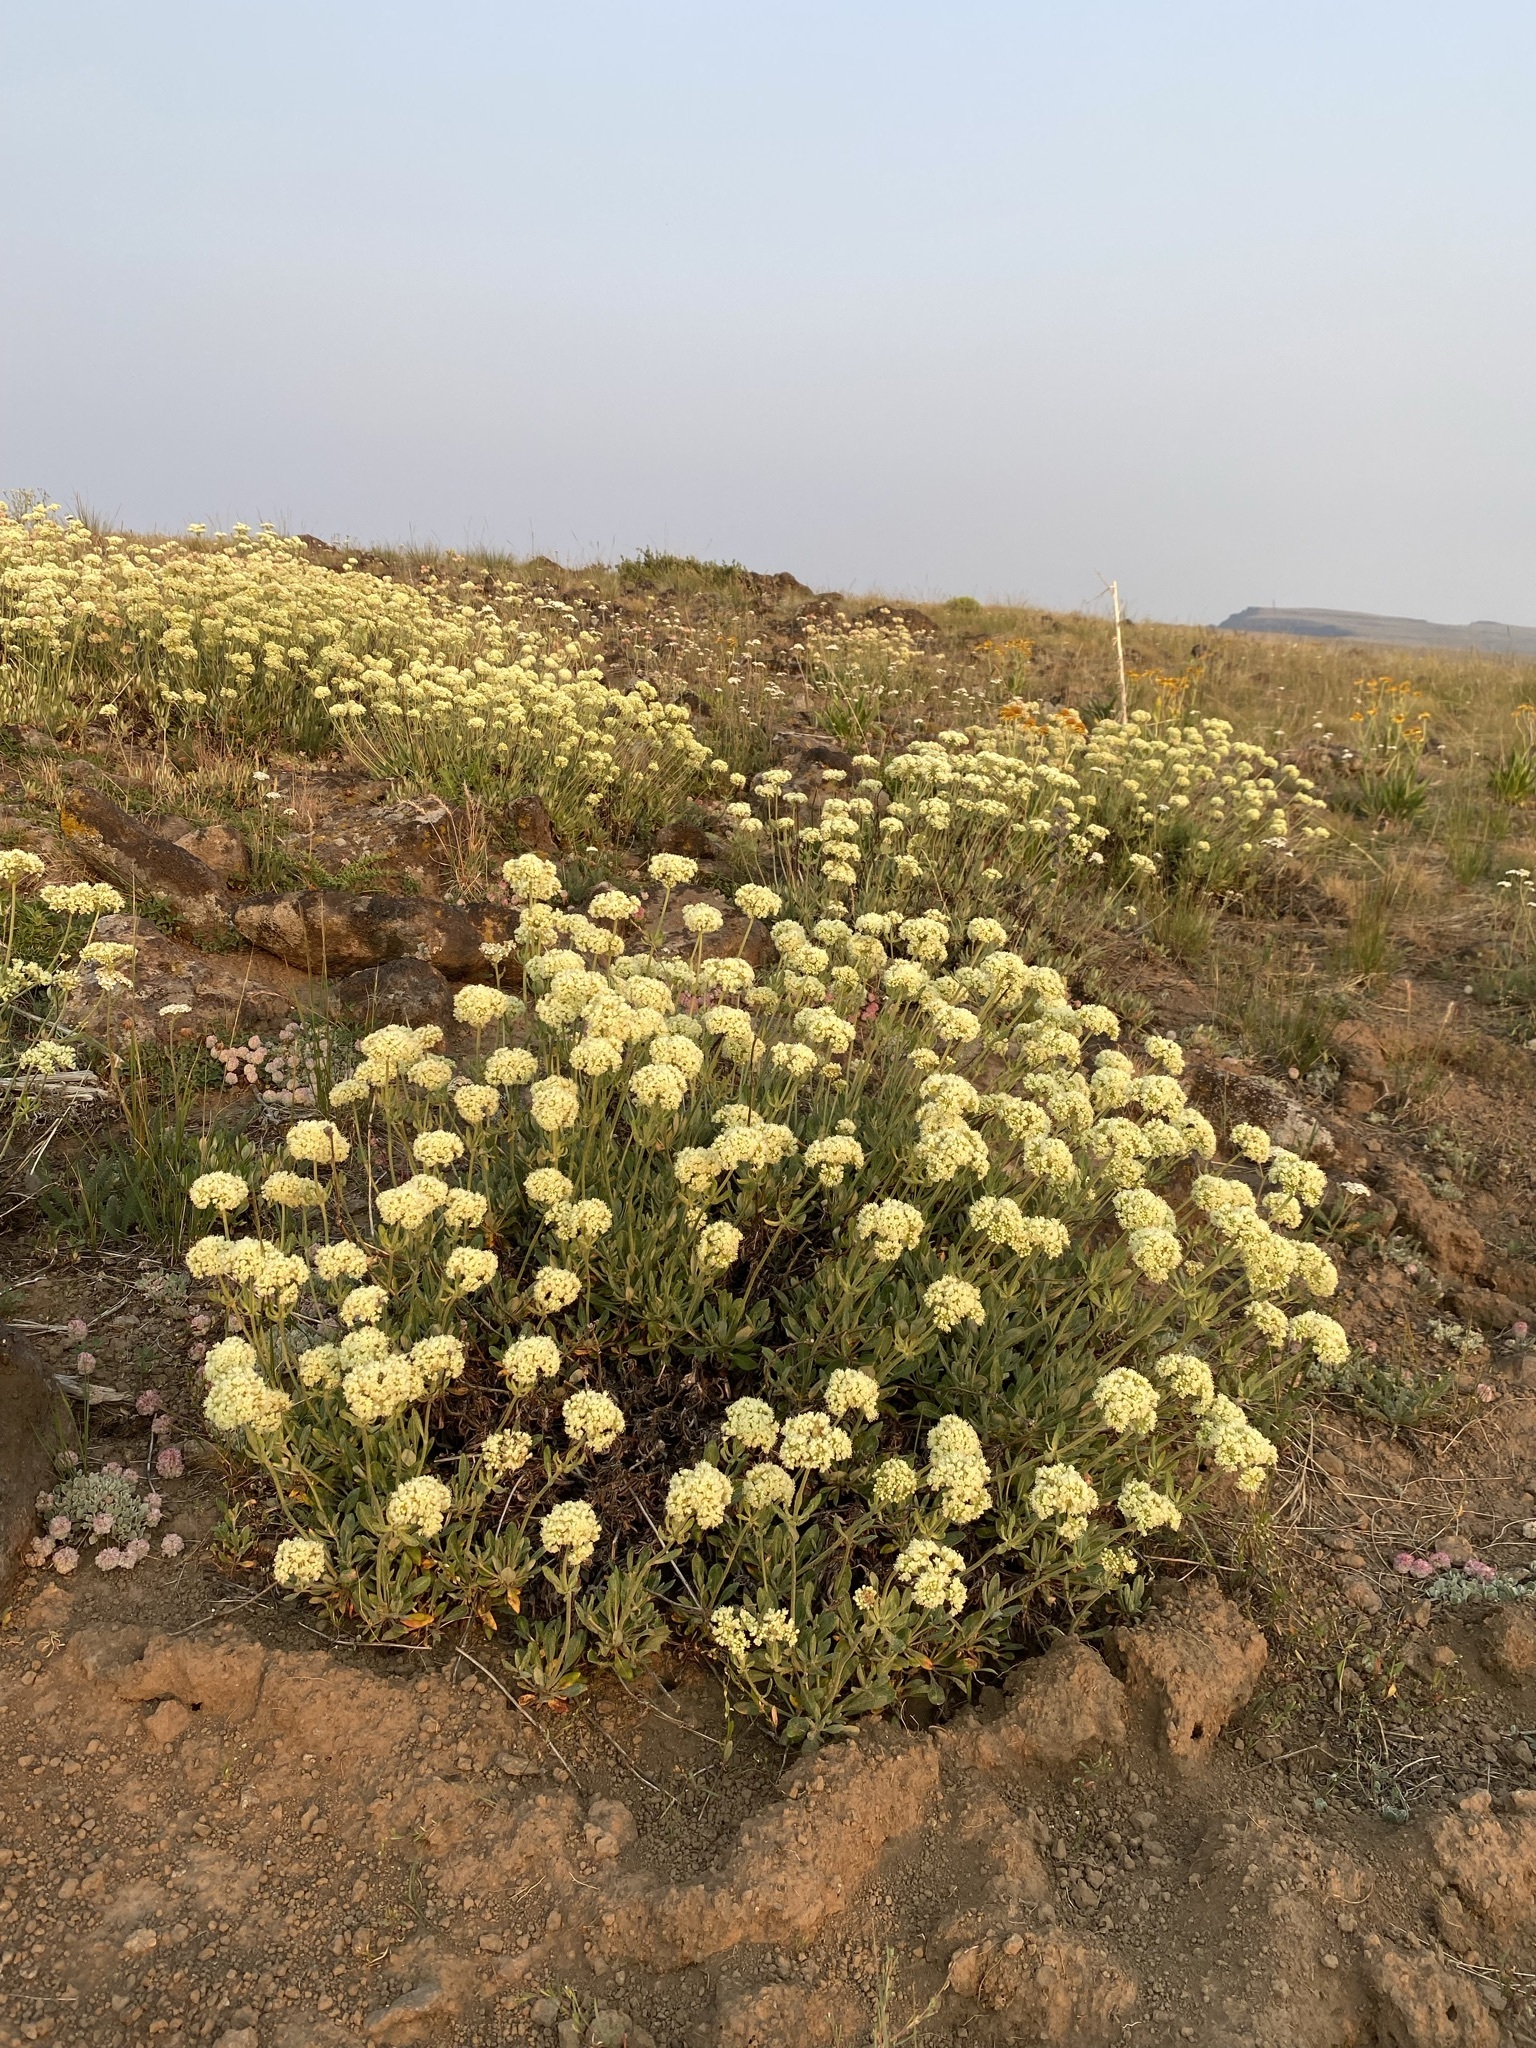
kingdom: Plantae
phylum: Tracheophyta
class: Magnoliopsida
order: Caryophyllales
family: Polygonaceae
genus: Eriogonum
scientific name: Eriogonum heracleoides
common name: Wyeth's buckwheat
